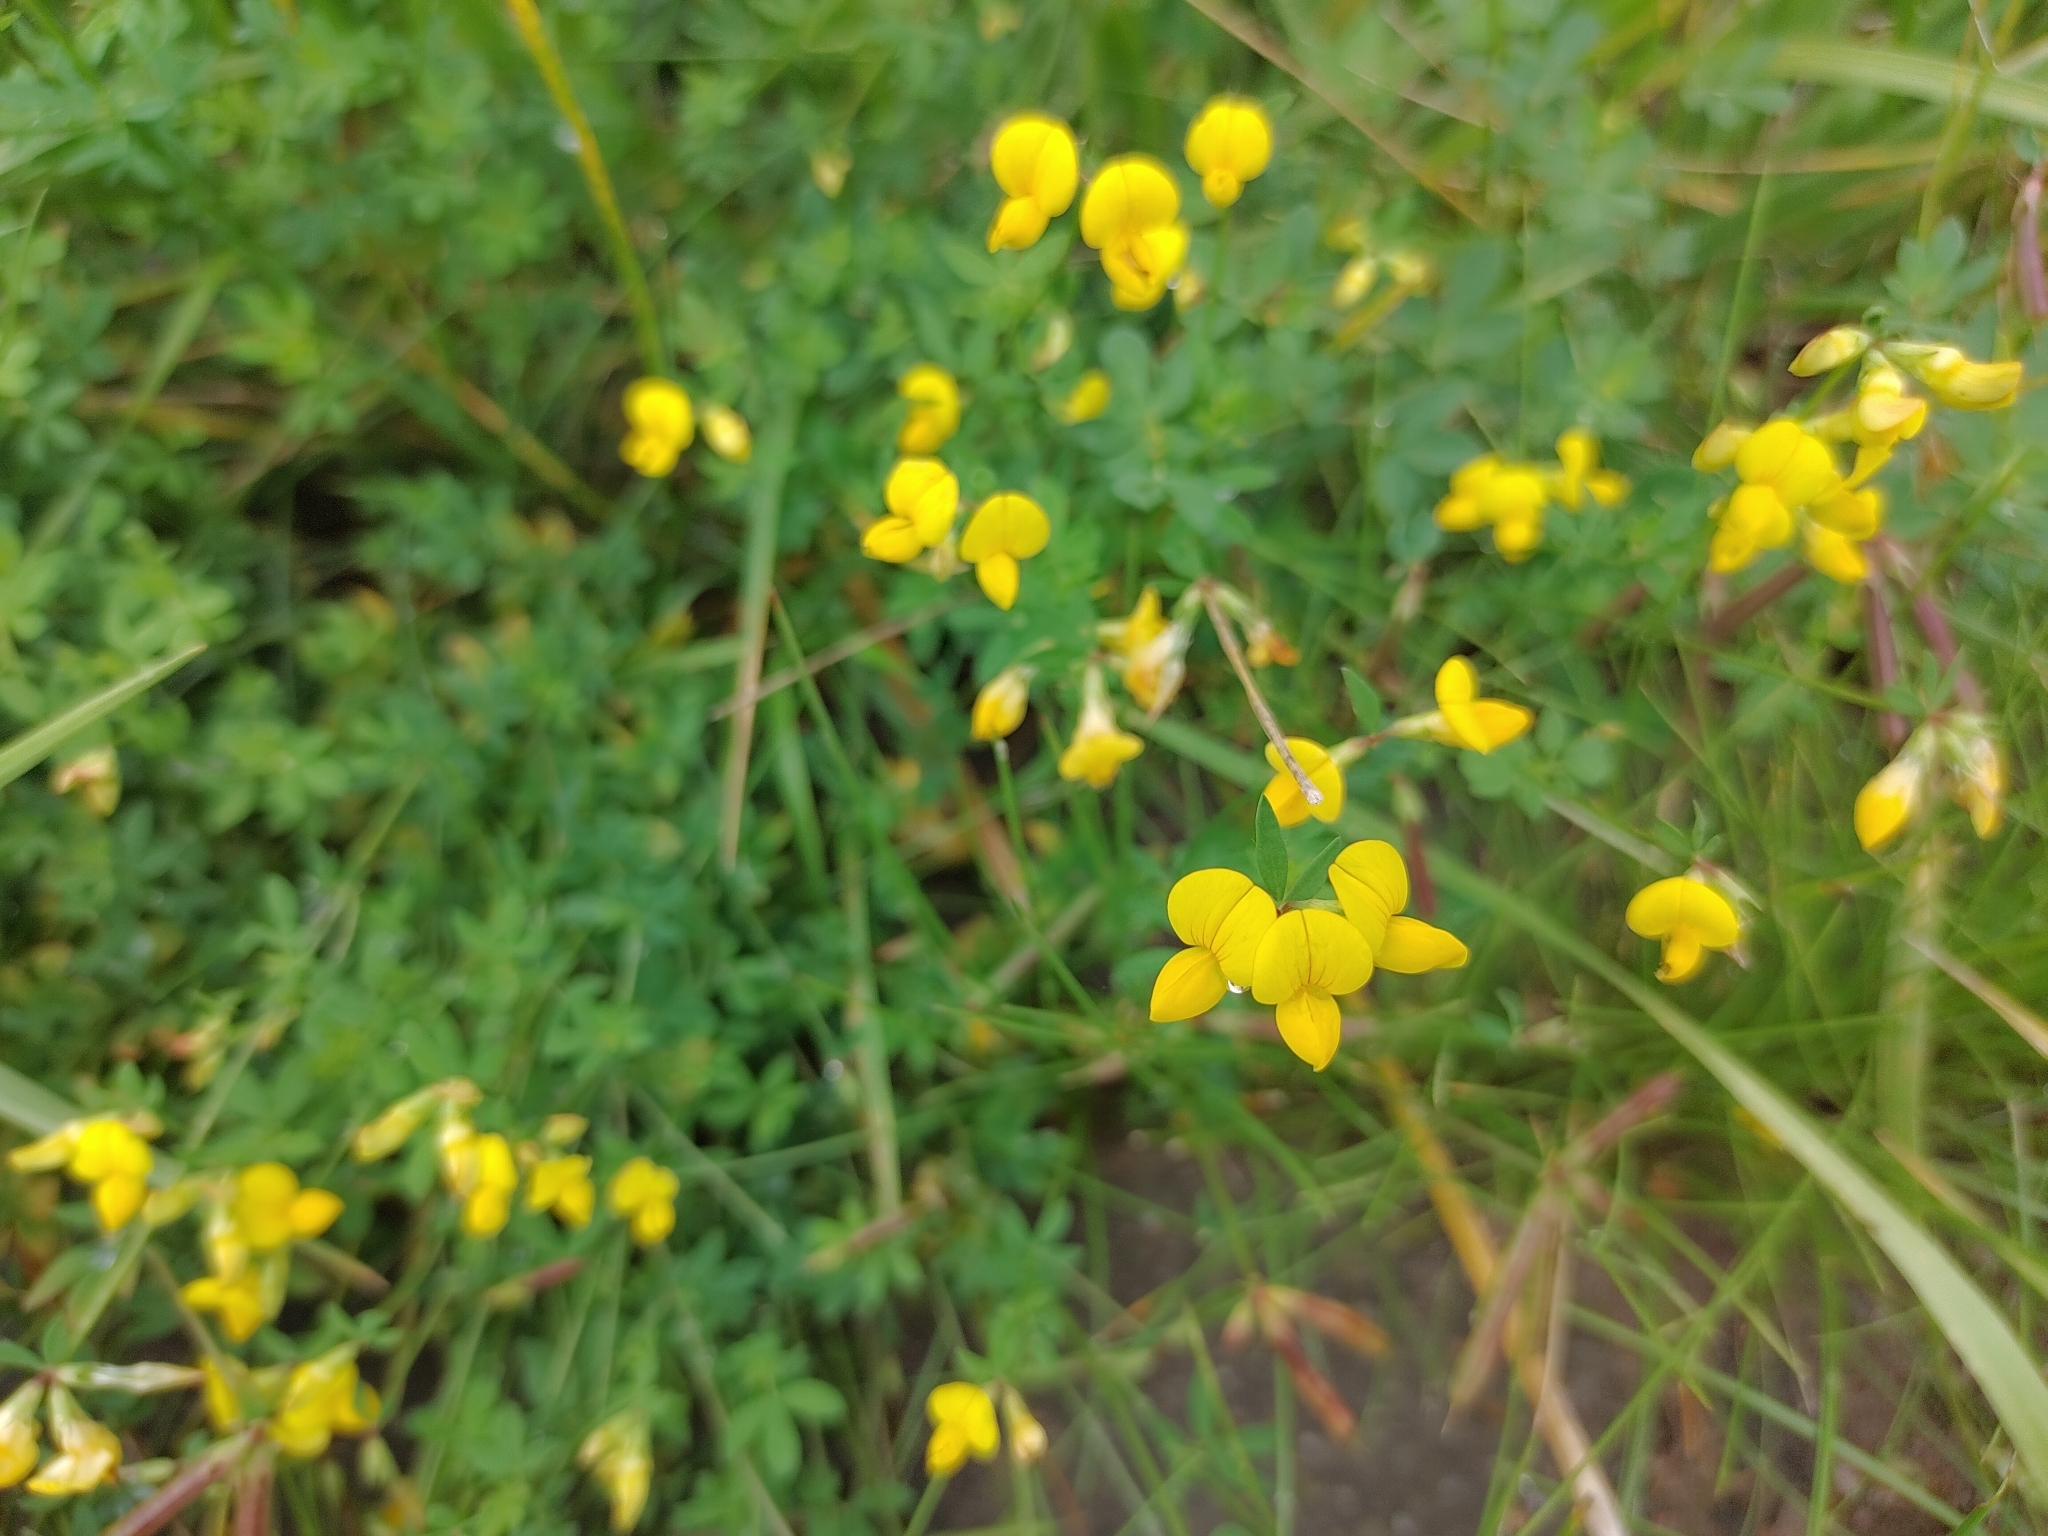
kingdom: Plantae
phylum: Tracheophyta
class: Magnoliopsida
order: Fabales
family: Fabaceae
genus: Lotus
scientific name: Lotus corniculatus
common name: Common bird's-foot-trefoil
